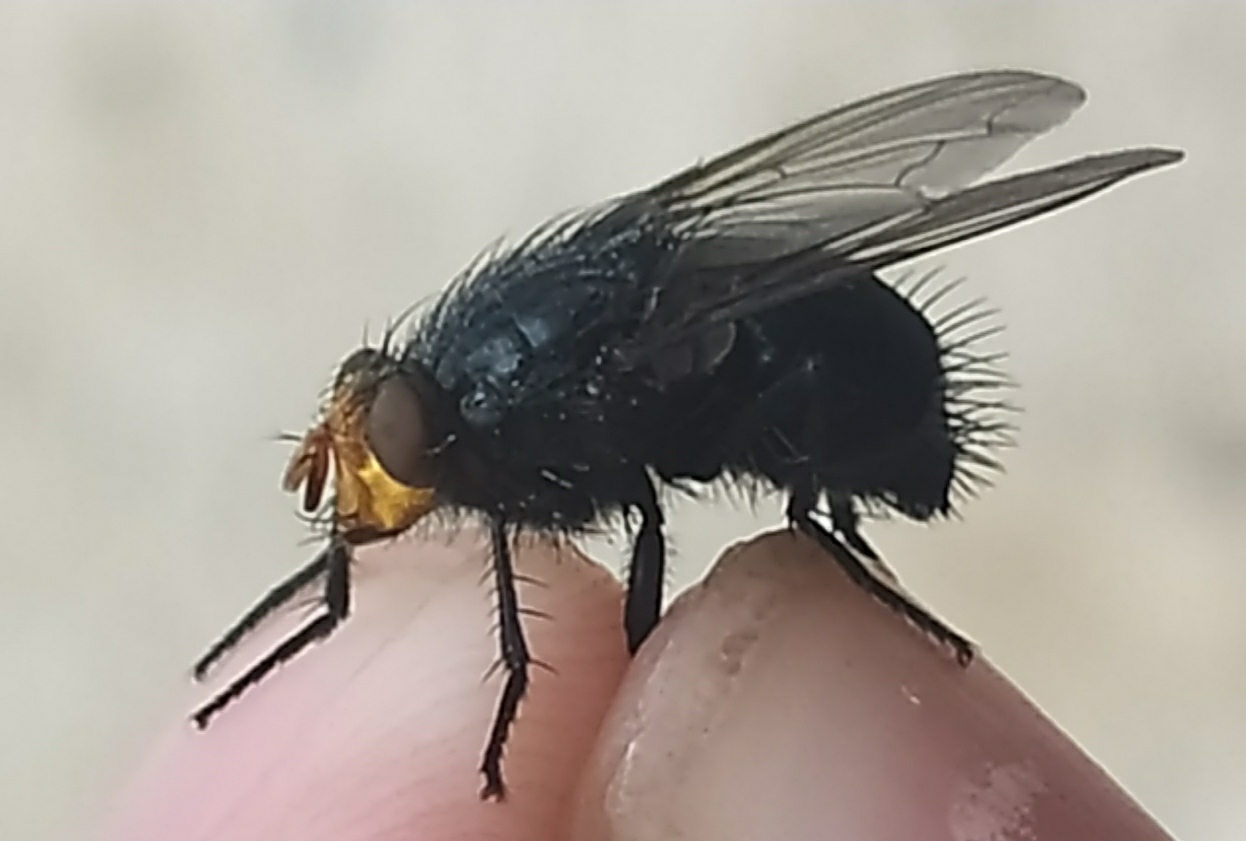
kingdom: Animalia
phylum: Arthropoda
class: Insecta
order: Diptera
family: Calliphoridae
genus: Cynomya
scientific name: Cynomya mortuorum
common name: Bluebottle blow fly
